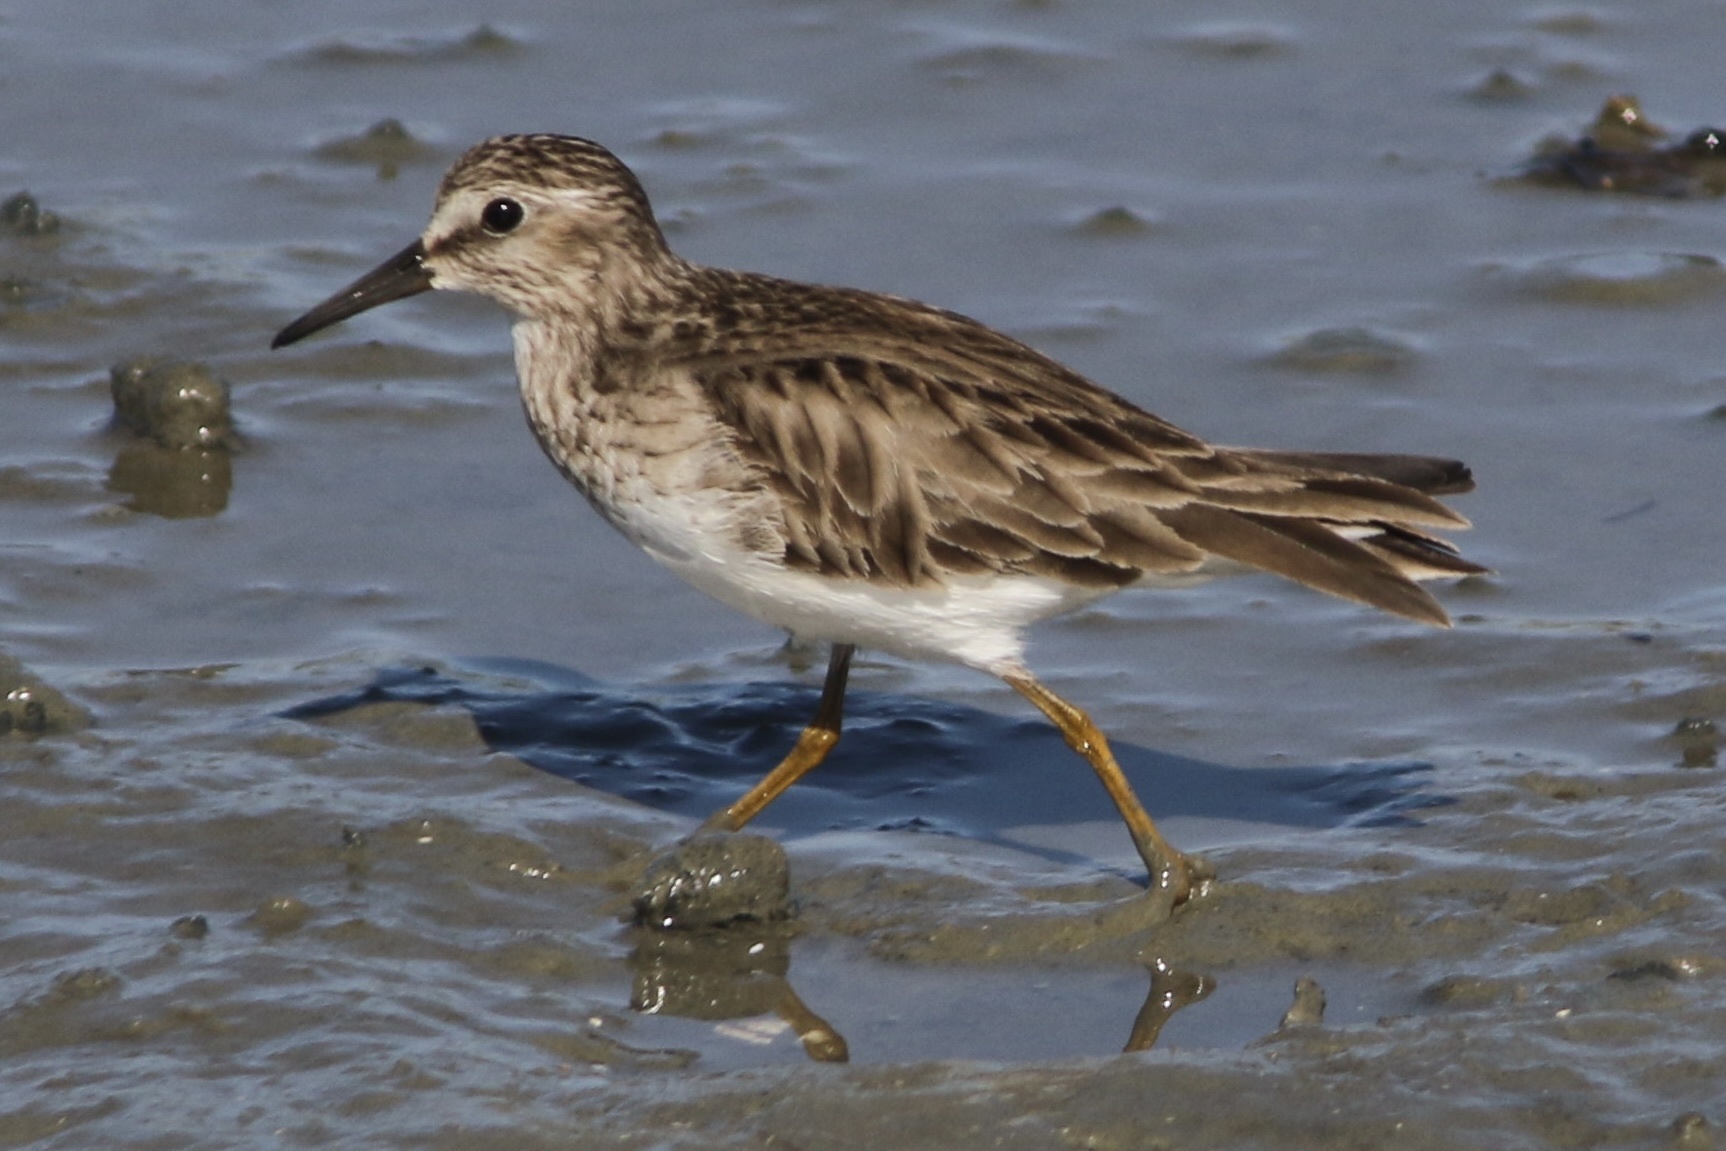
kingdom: Animalia
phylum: Chordata
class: Aves
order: Charadriiformes
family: Scolopacidae
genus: Calidris
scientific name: Calidris minutilla
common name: Least sandpiper
